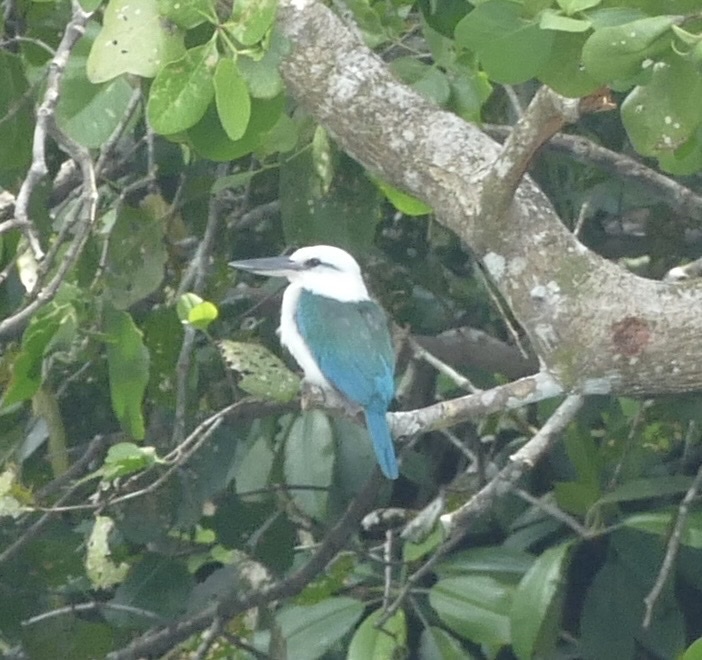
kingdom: Animalia
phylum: Chordata
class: Aves
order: Coraciiformes
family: Alcedinidae
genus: Todiramphus
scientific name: Todiramphus saurophagus
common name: Beach kingfisher
